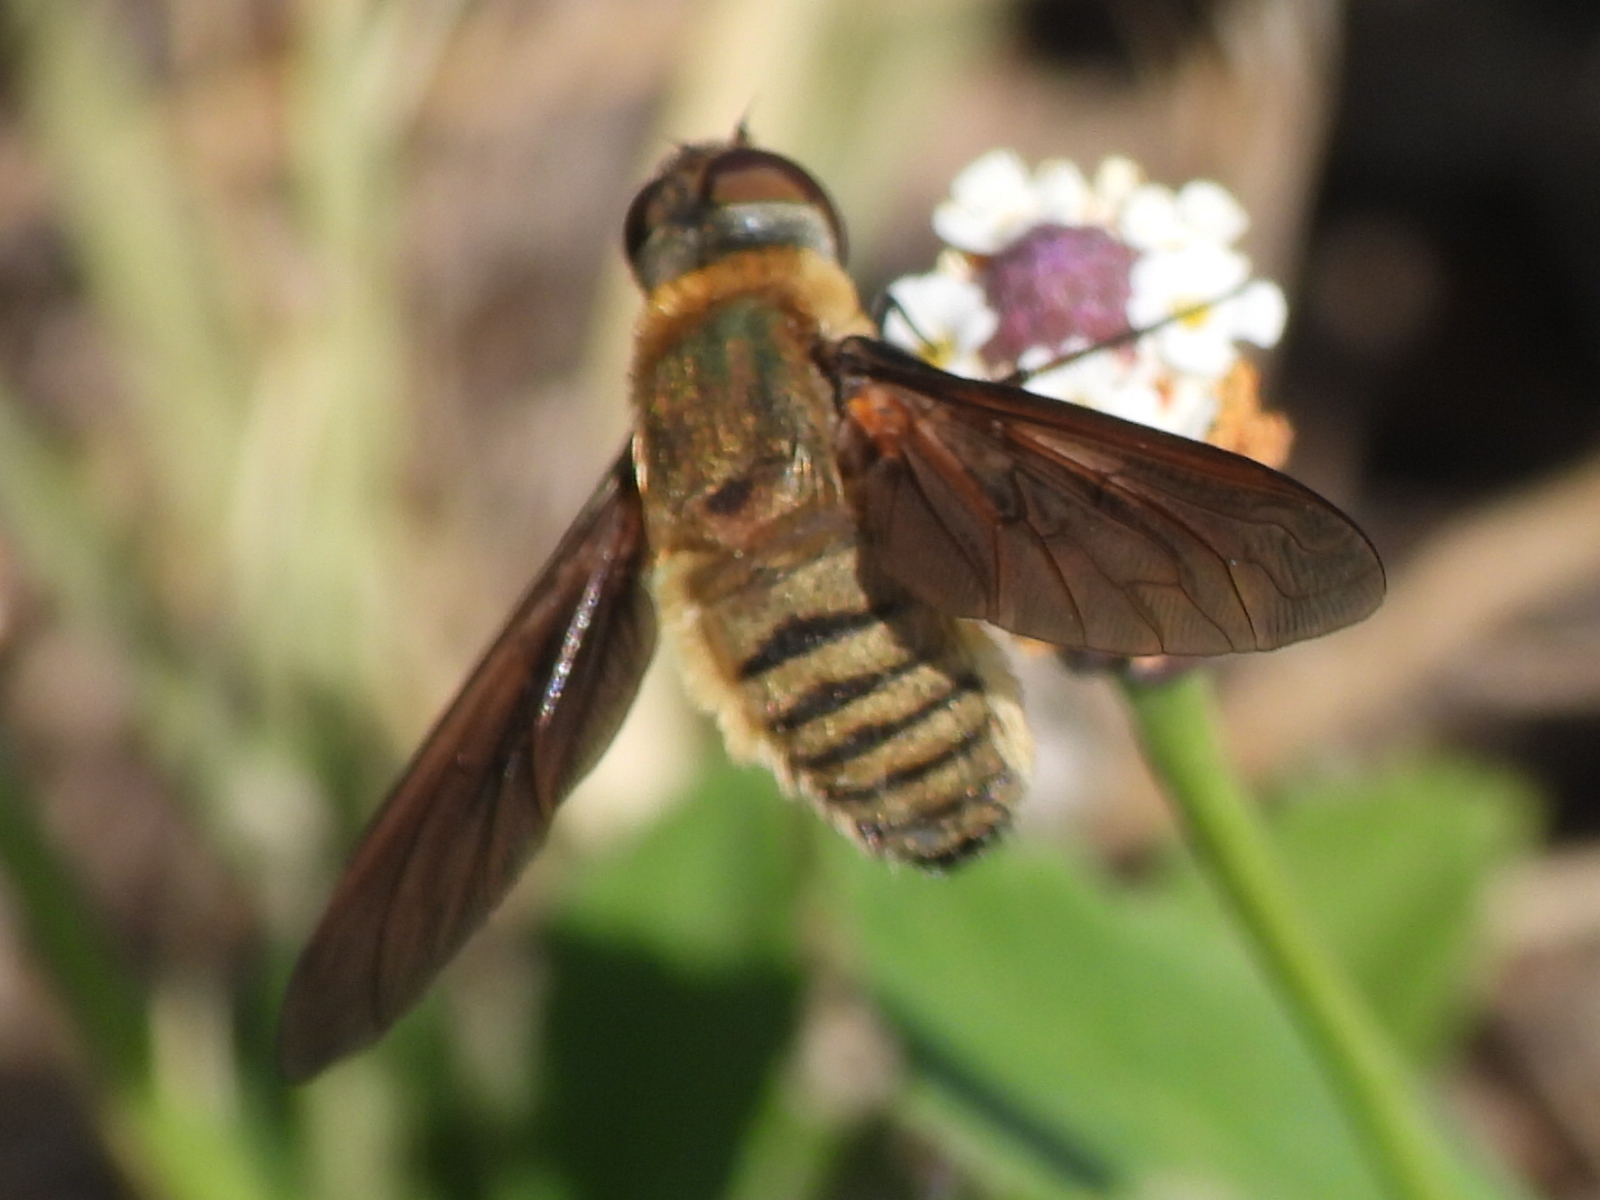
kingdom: Animalia
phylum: Arthropoda
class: Insecta
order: Diptera
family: Bombyliidae
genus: Poecilanthrax
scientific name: Poecilanthrax lucifer
